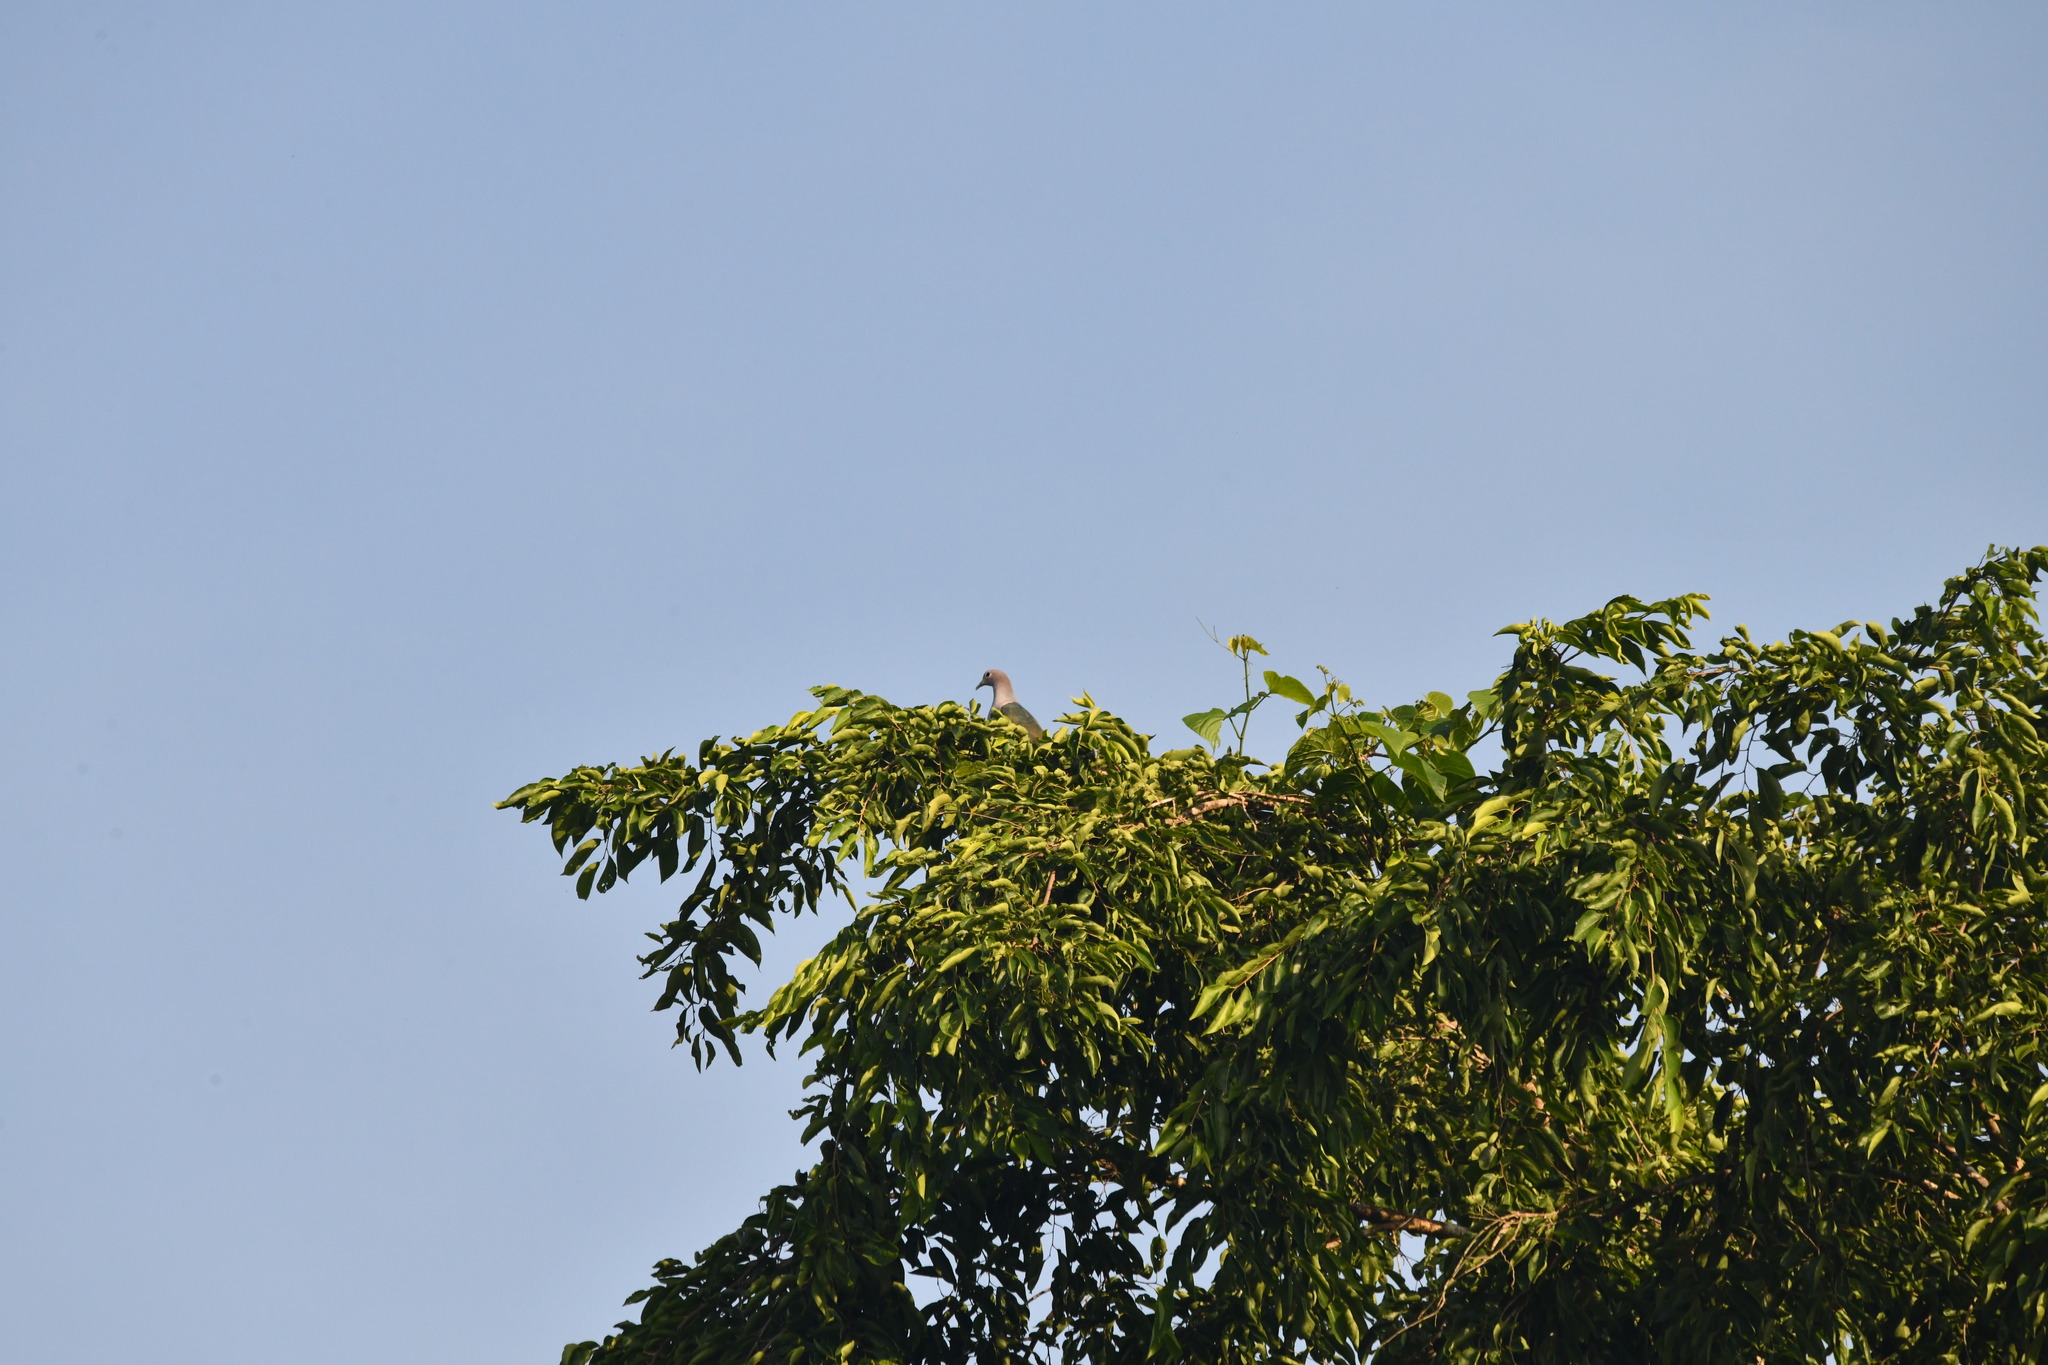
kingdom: Animalia
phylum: Chordata
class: Aves
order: Columbiformes
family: Columbidae
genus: Ducula
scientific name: Ducula aenea
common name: Green imperial pigeon
